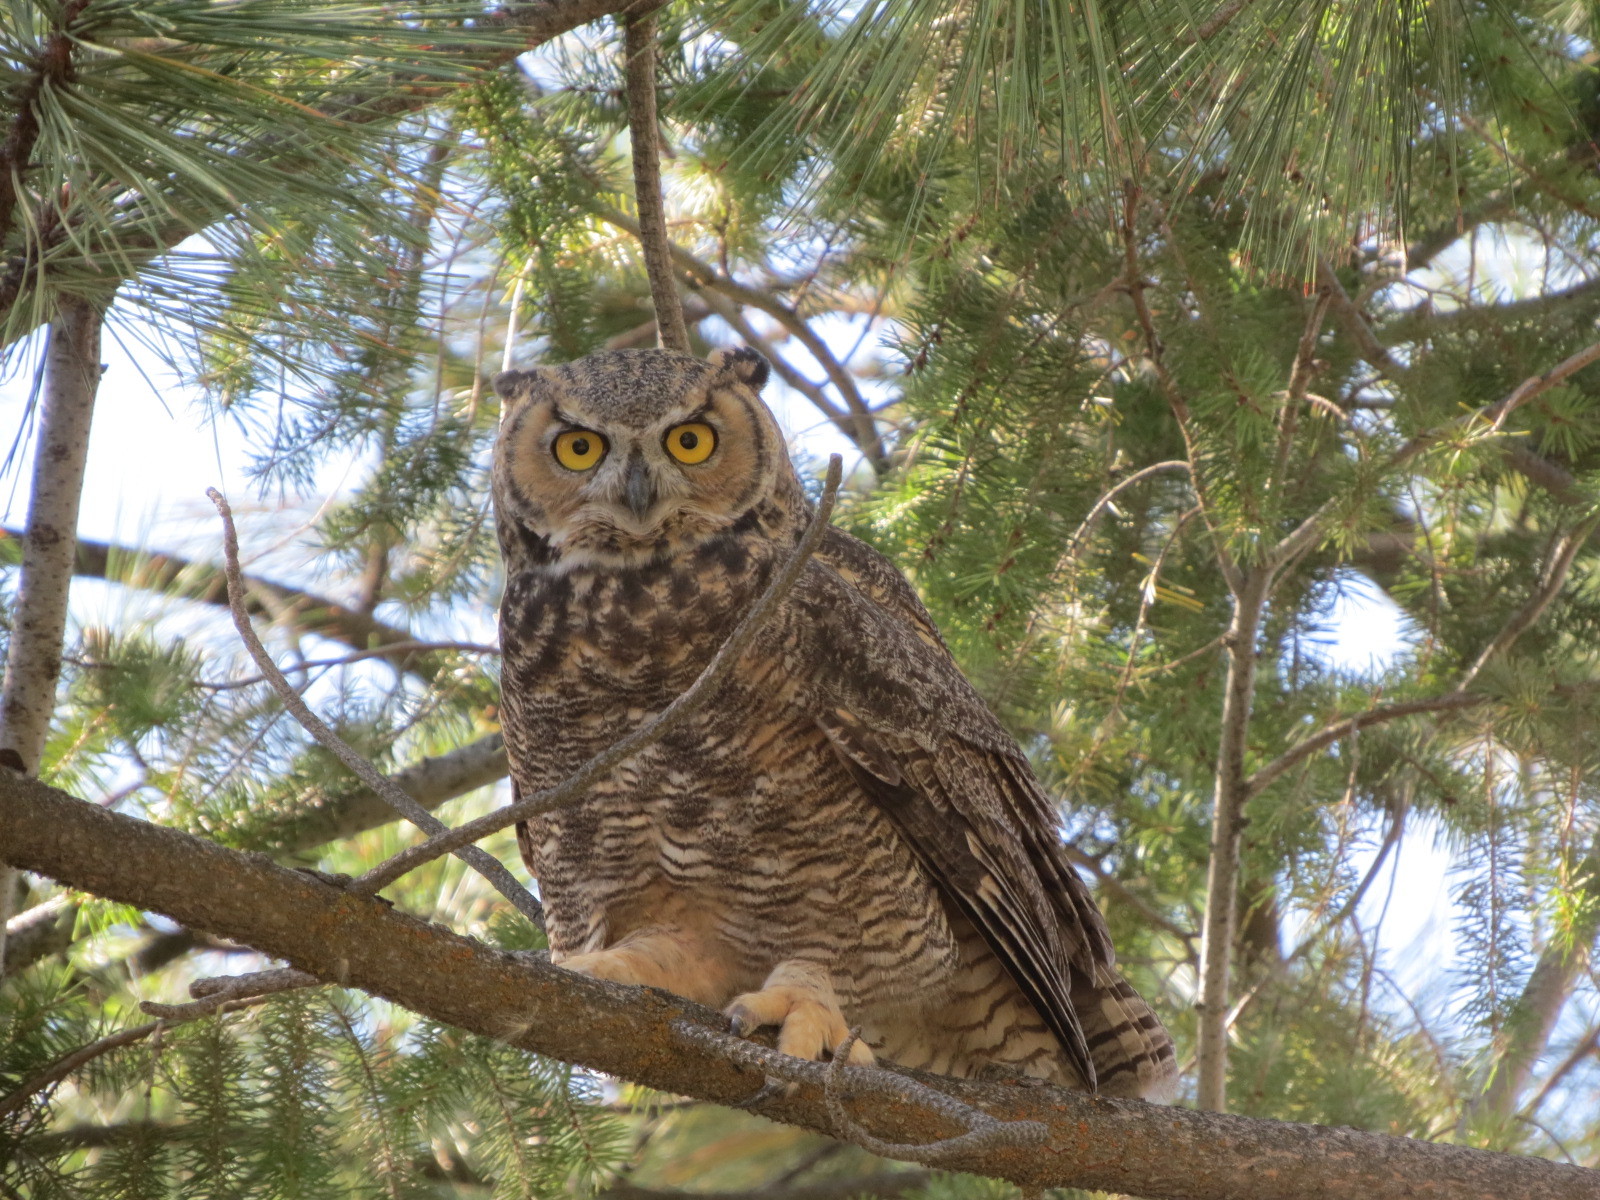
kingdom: Animalia
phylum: Chordata
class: Aves
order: Strigiformes
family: Strigidae
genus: Bubo
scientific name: Bubo virginianus
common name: Great horned owl
